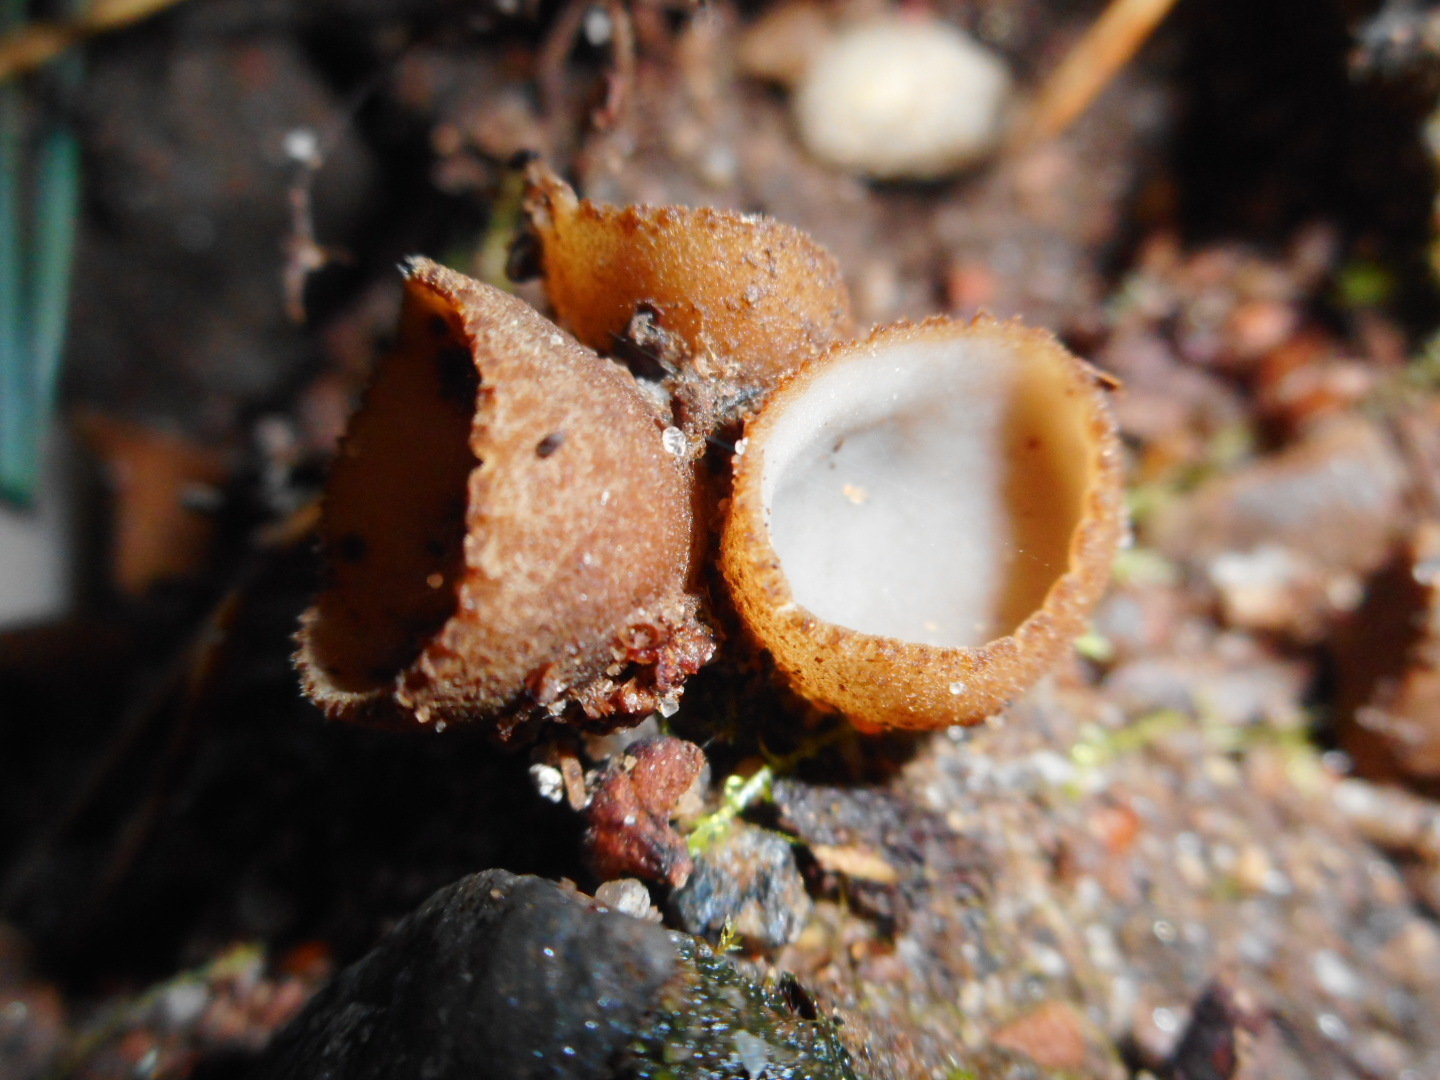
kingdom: Fungi
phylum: Ascomycota
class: Pezizomycetes
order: Pezizales
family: Pyronemataceae
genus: Geopora
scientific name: Geopora tenuis
